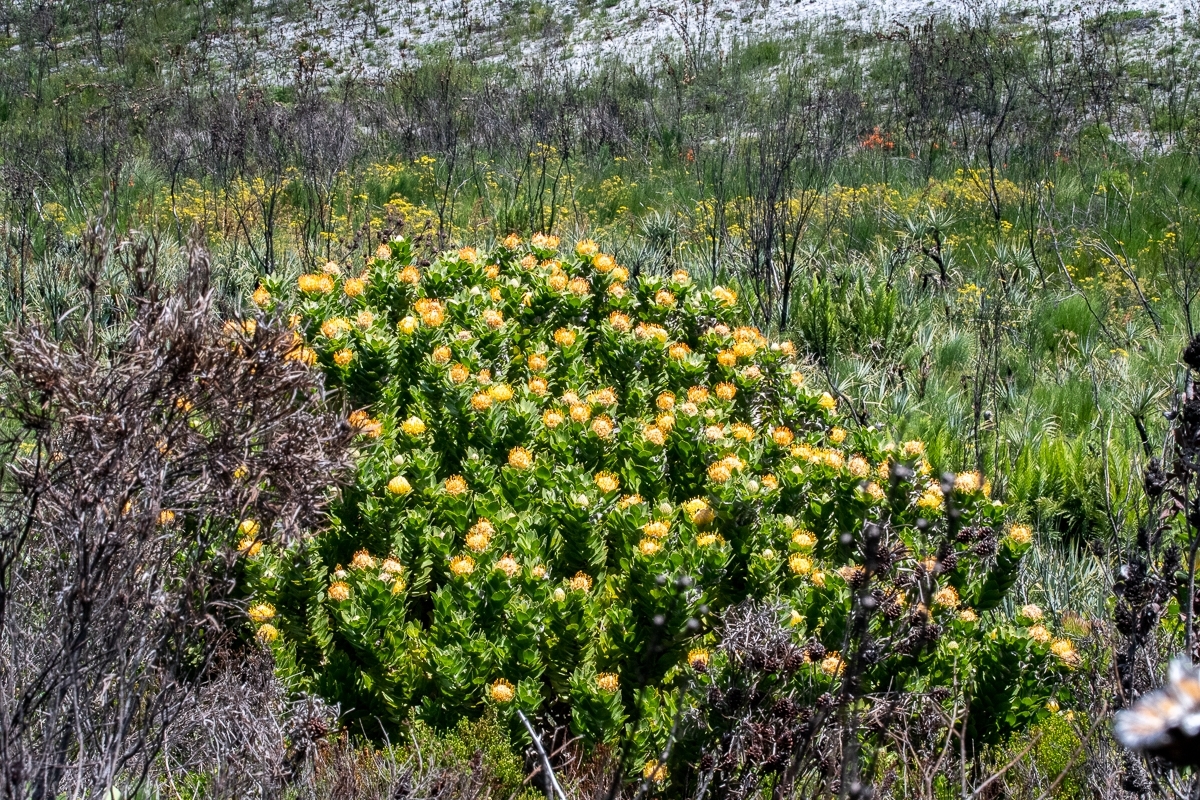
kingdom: Plantae
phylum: Tracheophyta
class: Magnoliopsida
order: Proteales
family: Proteaceae
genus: Leucospermum
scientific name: Leucospermum conocarpodendron
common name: Tree pincushion
